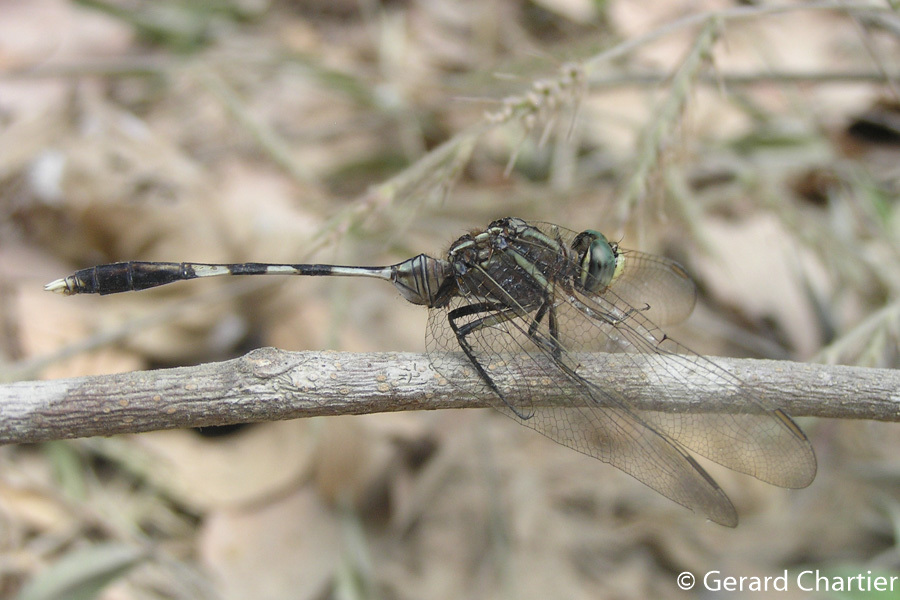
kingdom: Animalia
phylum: Arthropoda
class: Insecta
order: Odonata
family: Libellulidae
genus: Orthetrum
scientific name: Orthetrum sabina
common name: Slender skimmer
